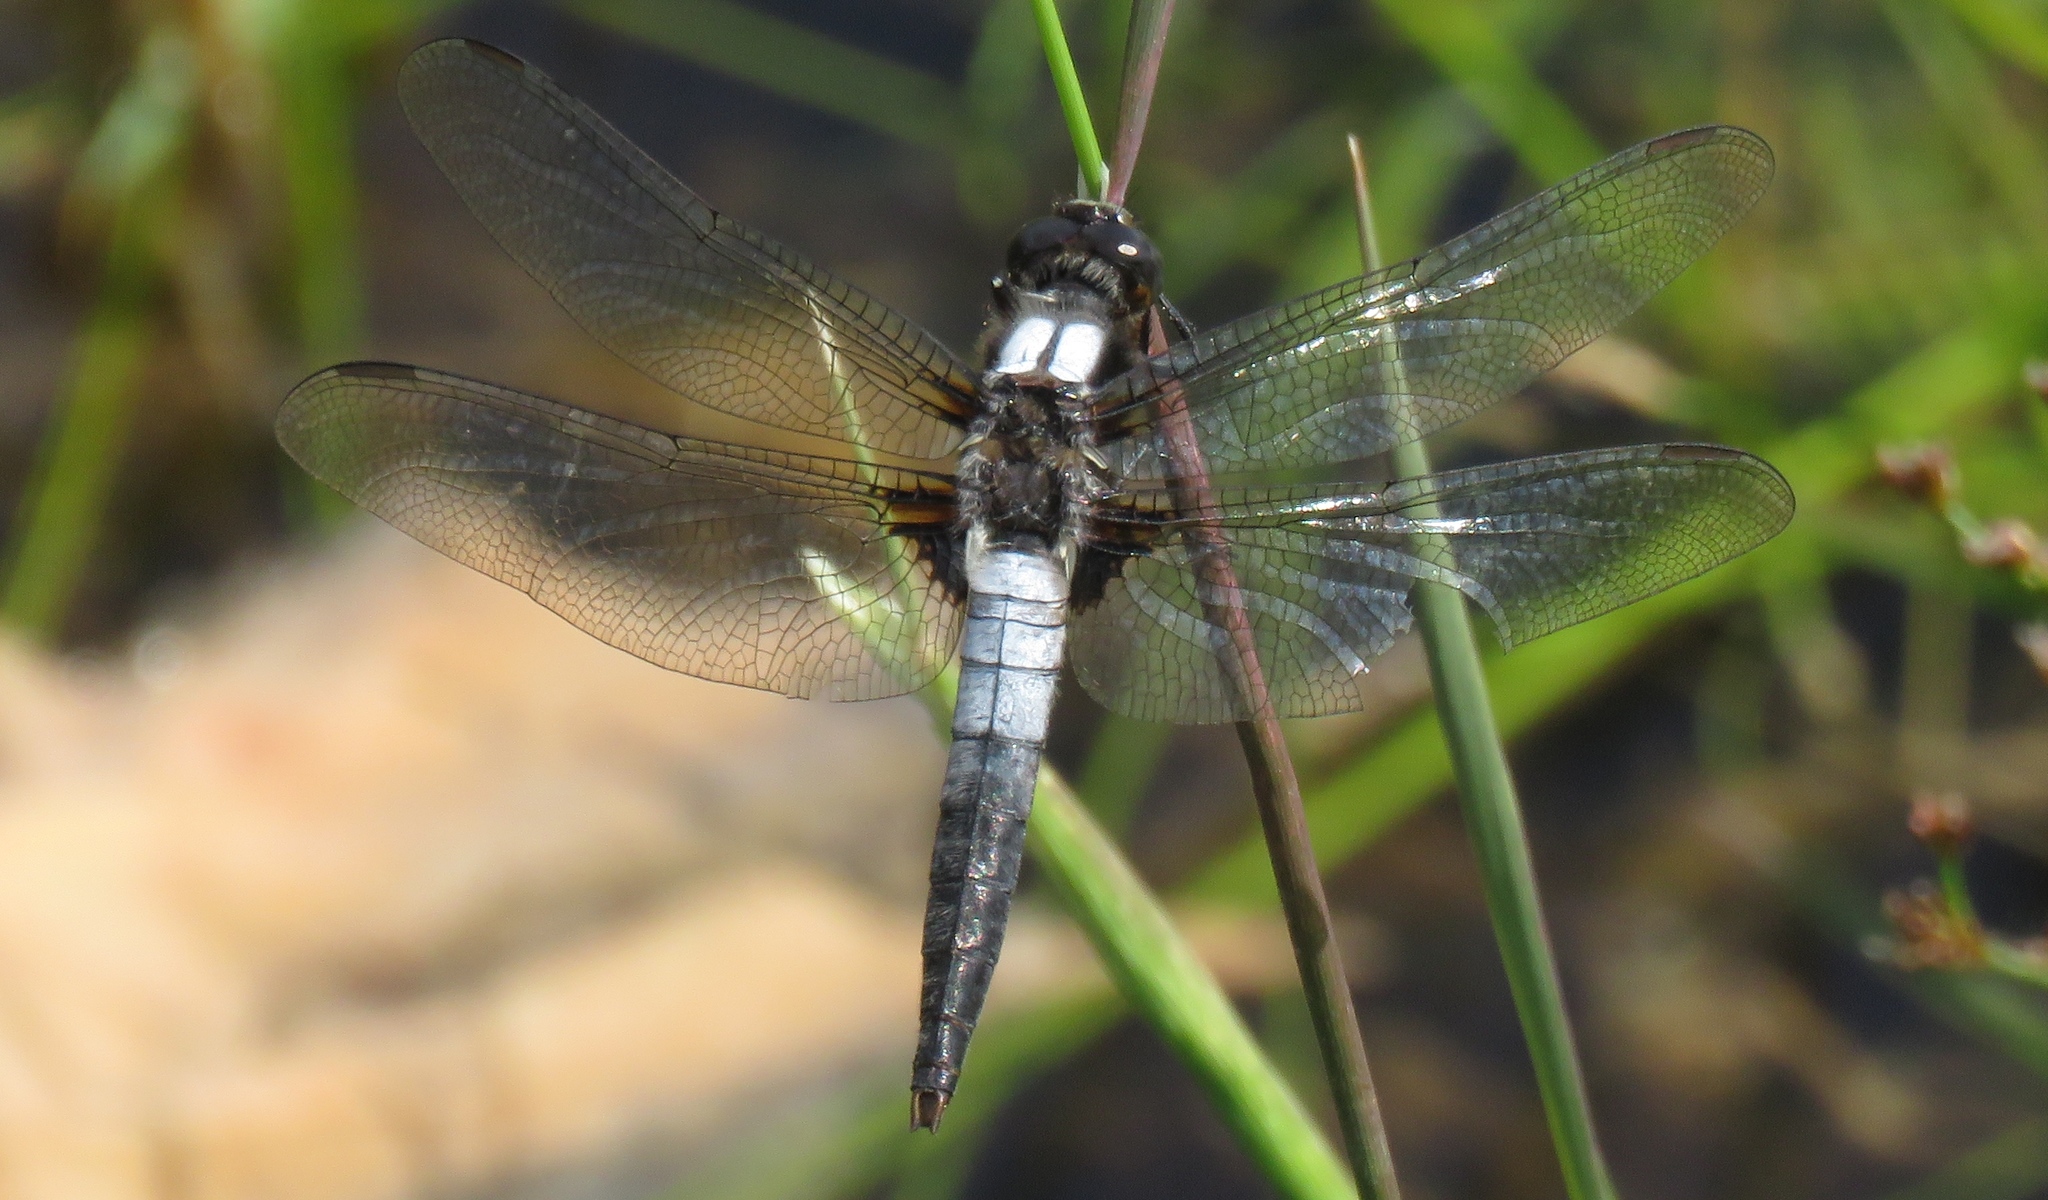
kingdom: Animalia
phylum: Arthropoda
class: Insecta
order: Odonata
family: Libellulidae
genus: Ladona
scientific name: Ladona julia
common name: Chalk-fronted corporal
